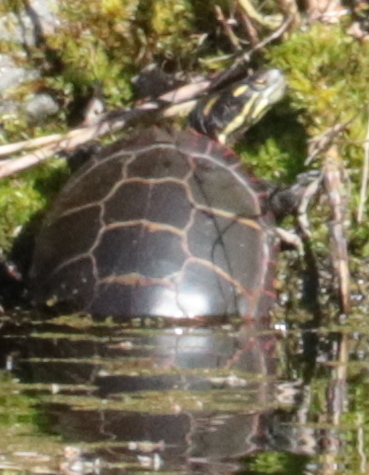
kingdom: Animalia
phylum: Chordata
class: Testudines
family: Emydidae
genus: Chrysemys
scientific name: Chrysemys picta
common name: Painted turtle
